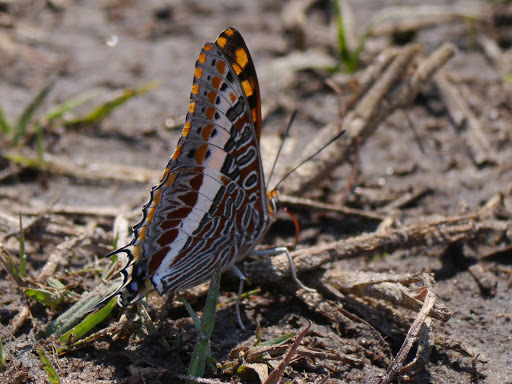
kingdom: Animalia
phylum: Arthropoda
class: Insecta
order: Lepidoptera
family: Nymphalidae
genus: Charaxes
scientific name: Charaxes jasius
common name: Two tailed pasha
